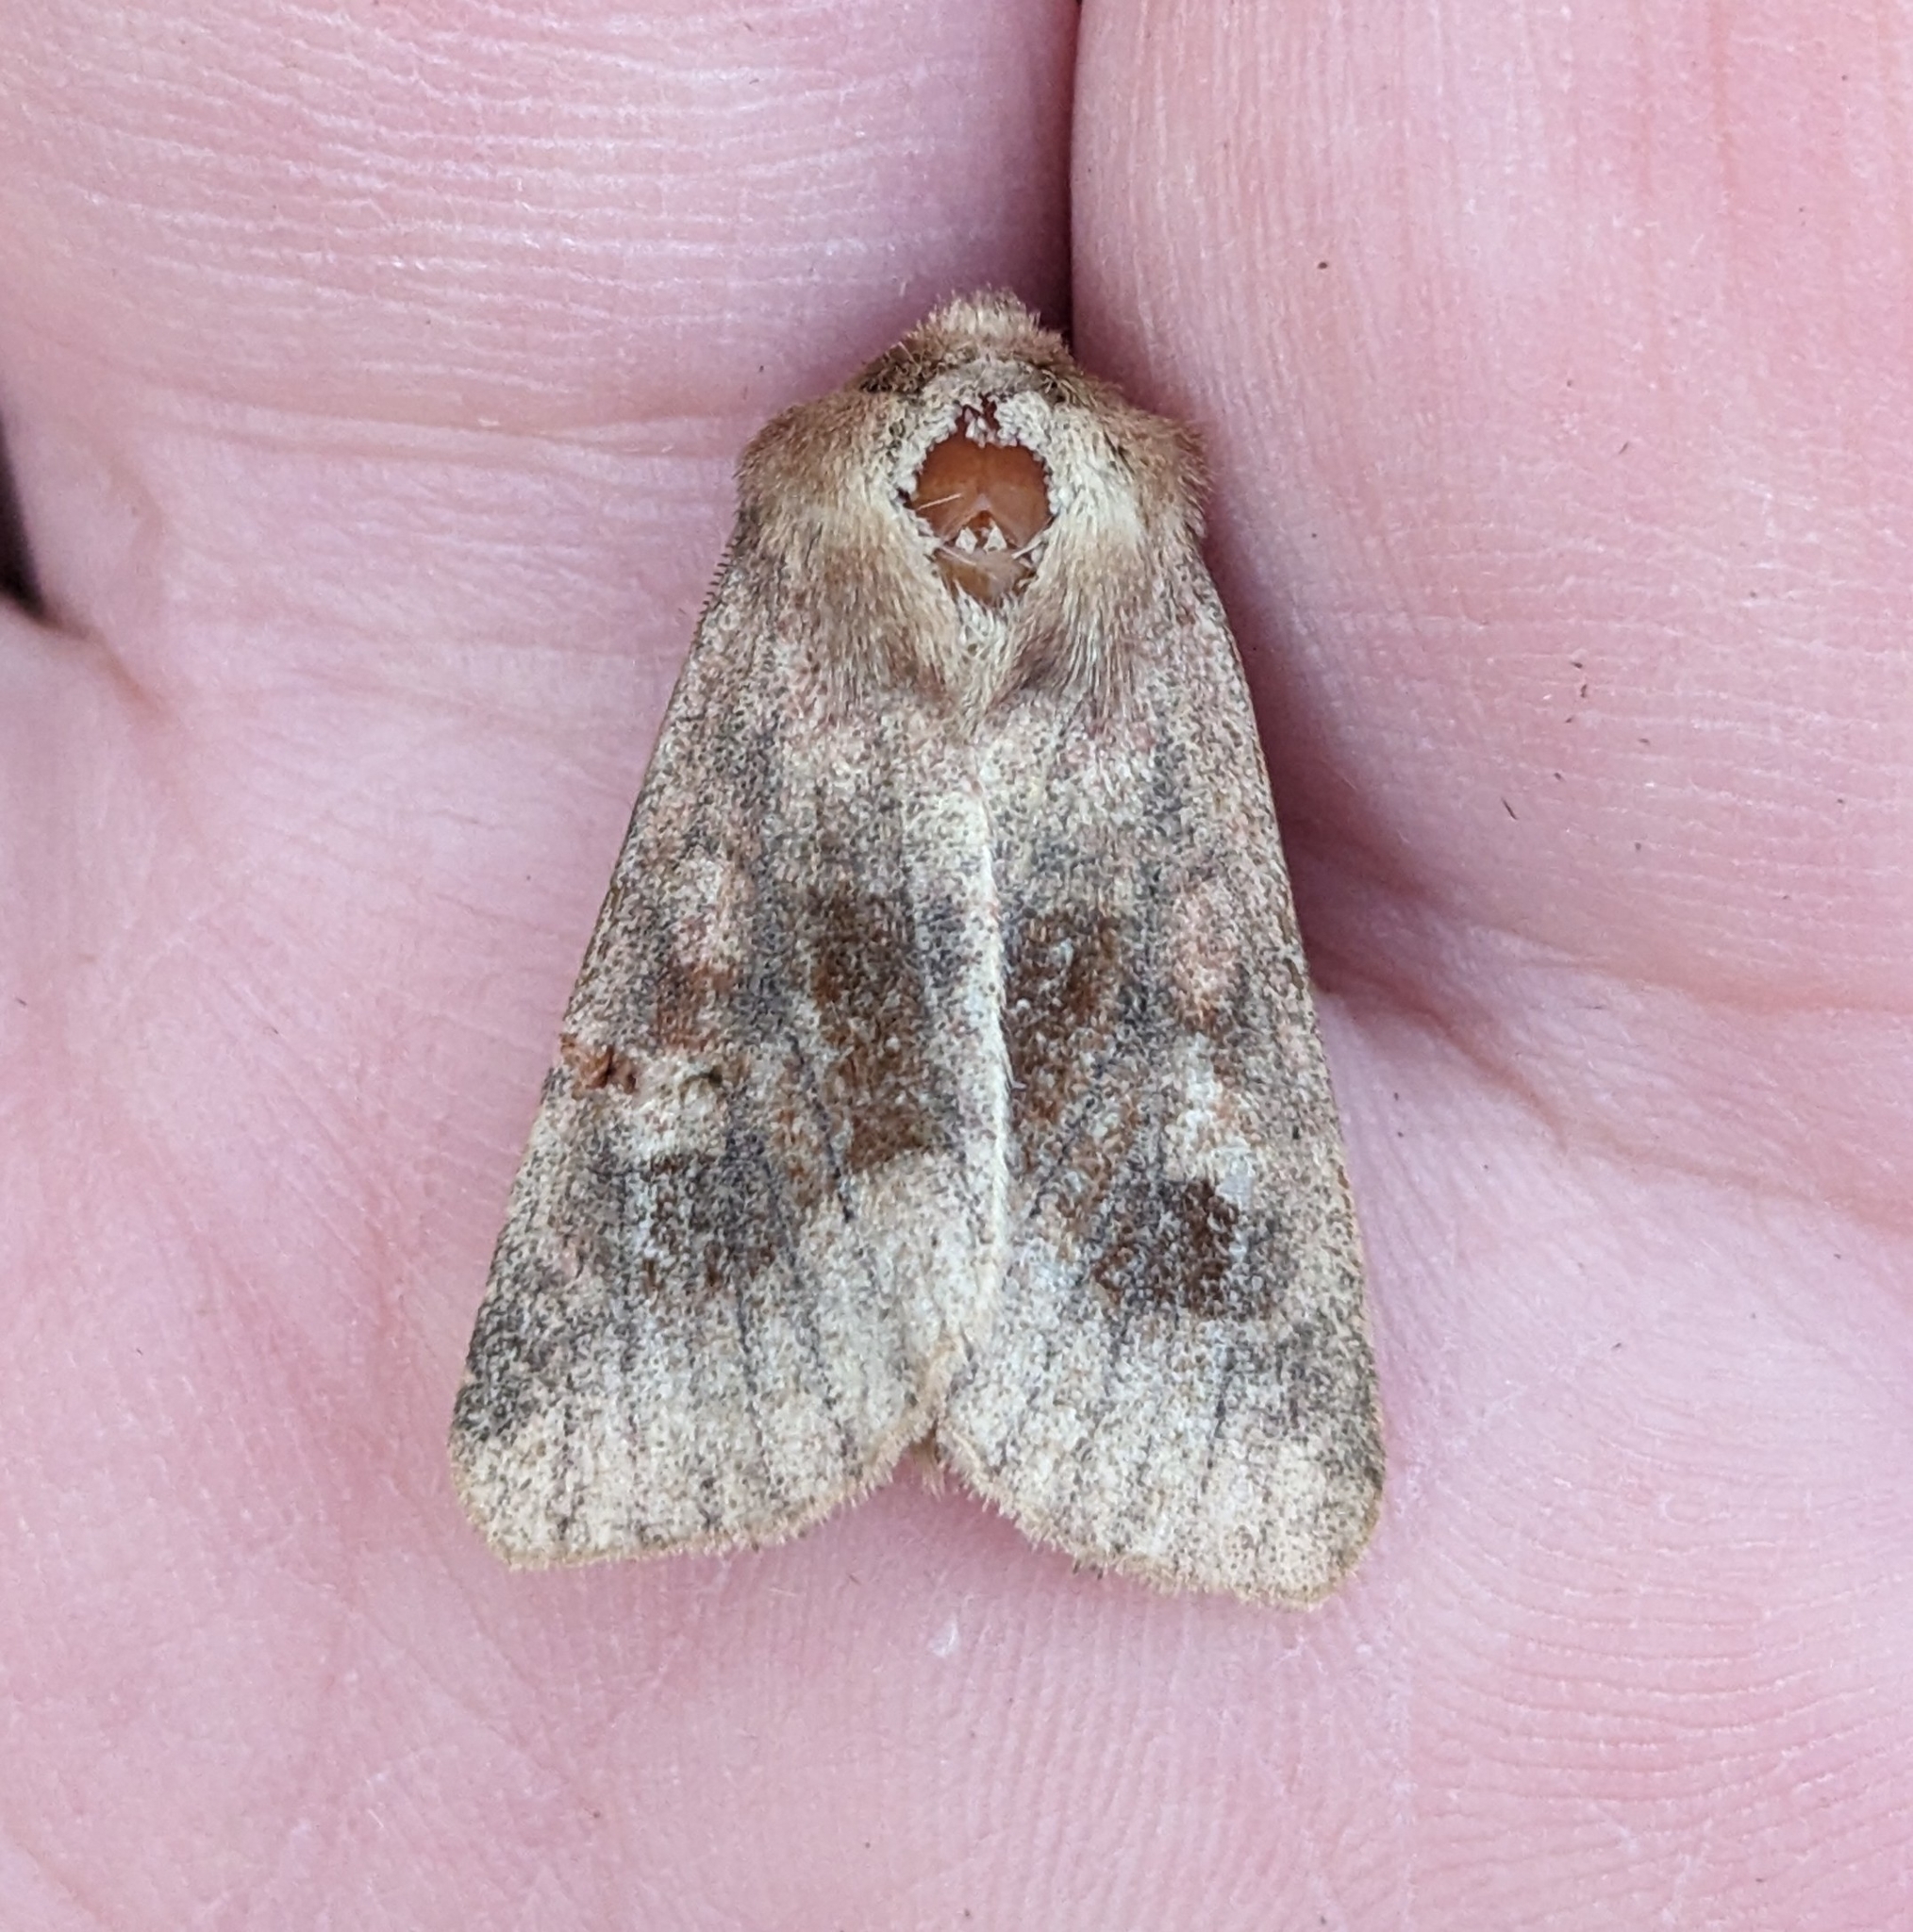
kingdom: Animalia
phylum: Arthropoda
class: Insecta
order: Lepidoptera
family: Noctuidae
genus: Nephelodes
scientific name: Nephelodes minians
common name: Bronzed cutworm
